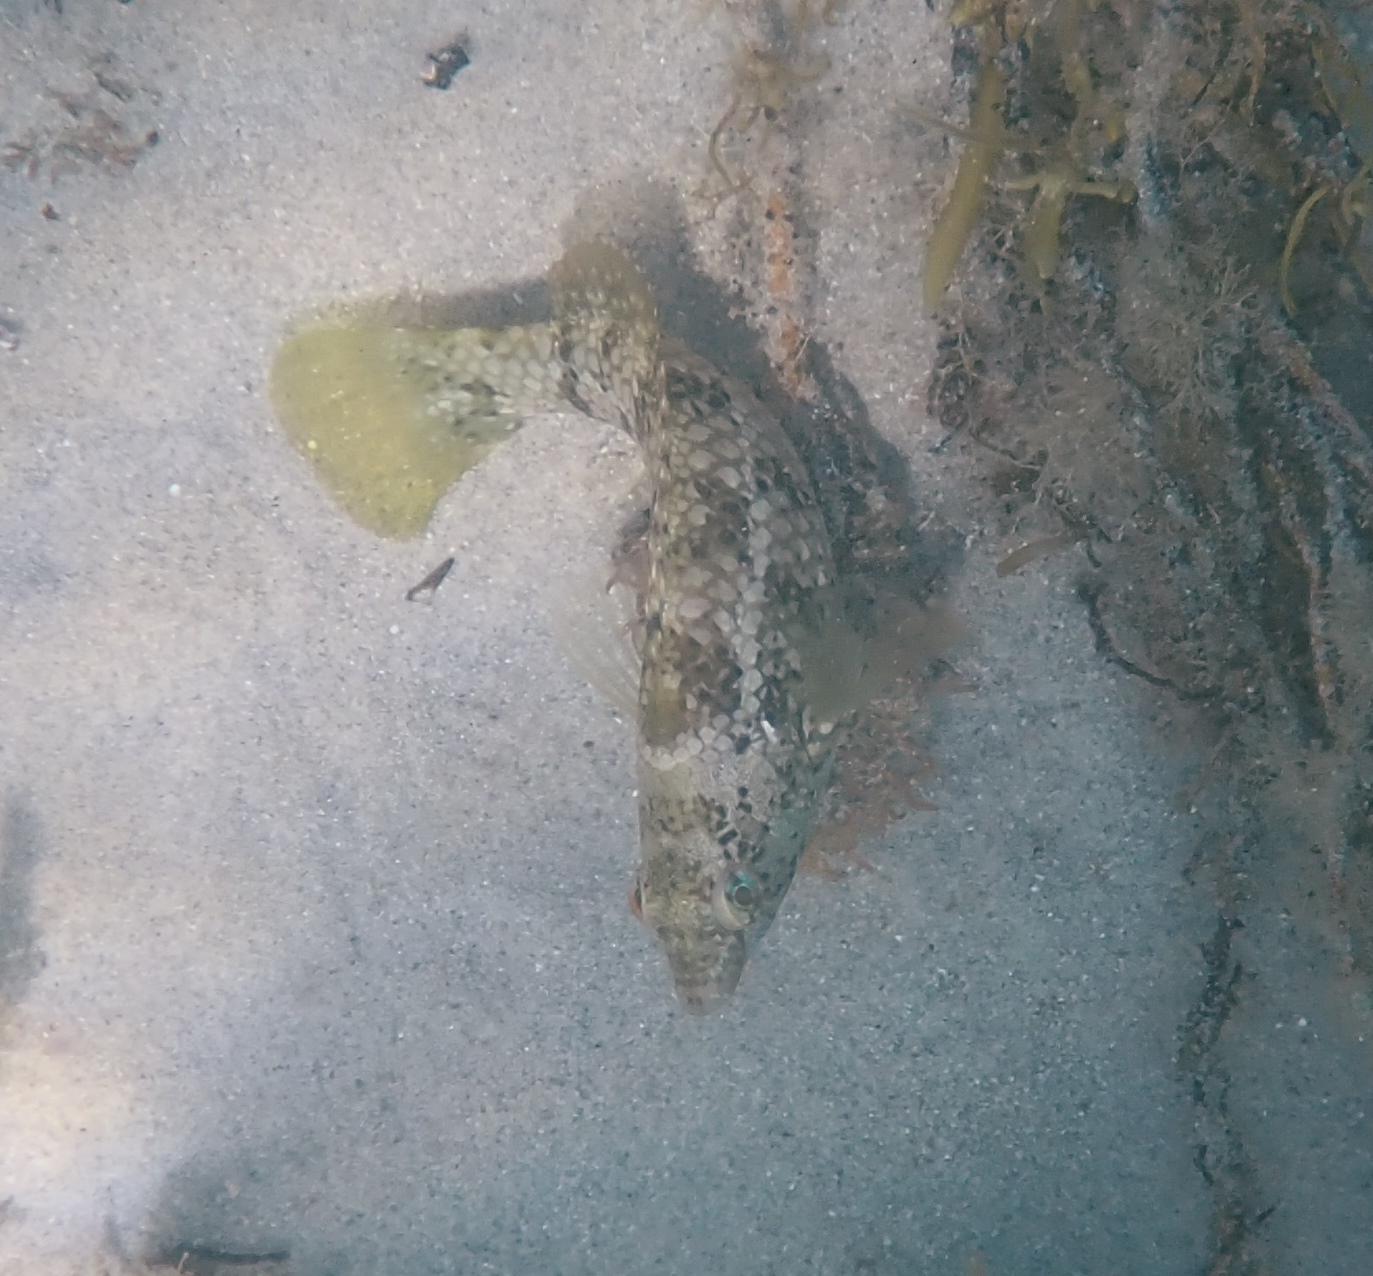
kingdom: Animalia
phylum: Chordata
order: Perciformes
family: Labridae
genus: Notolabrus
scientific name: Notolabrus parilus
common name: Brown spotted wrasse
